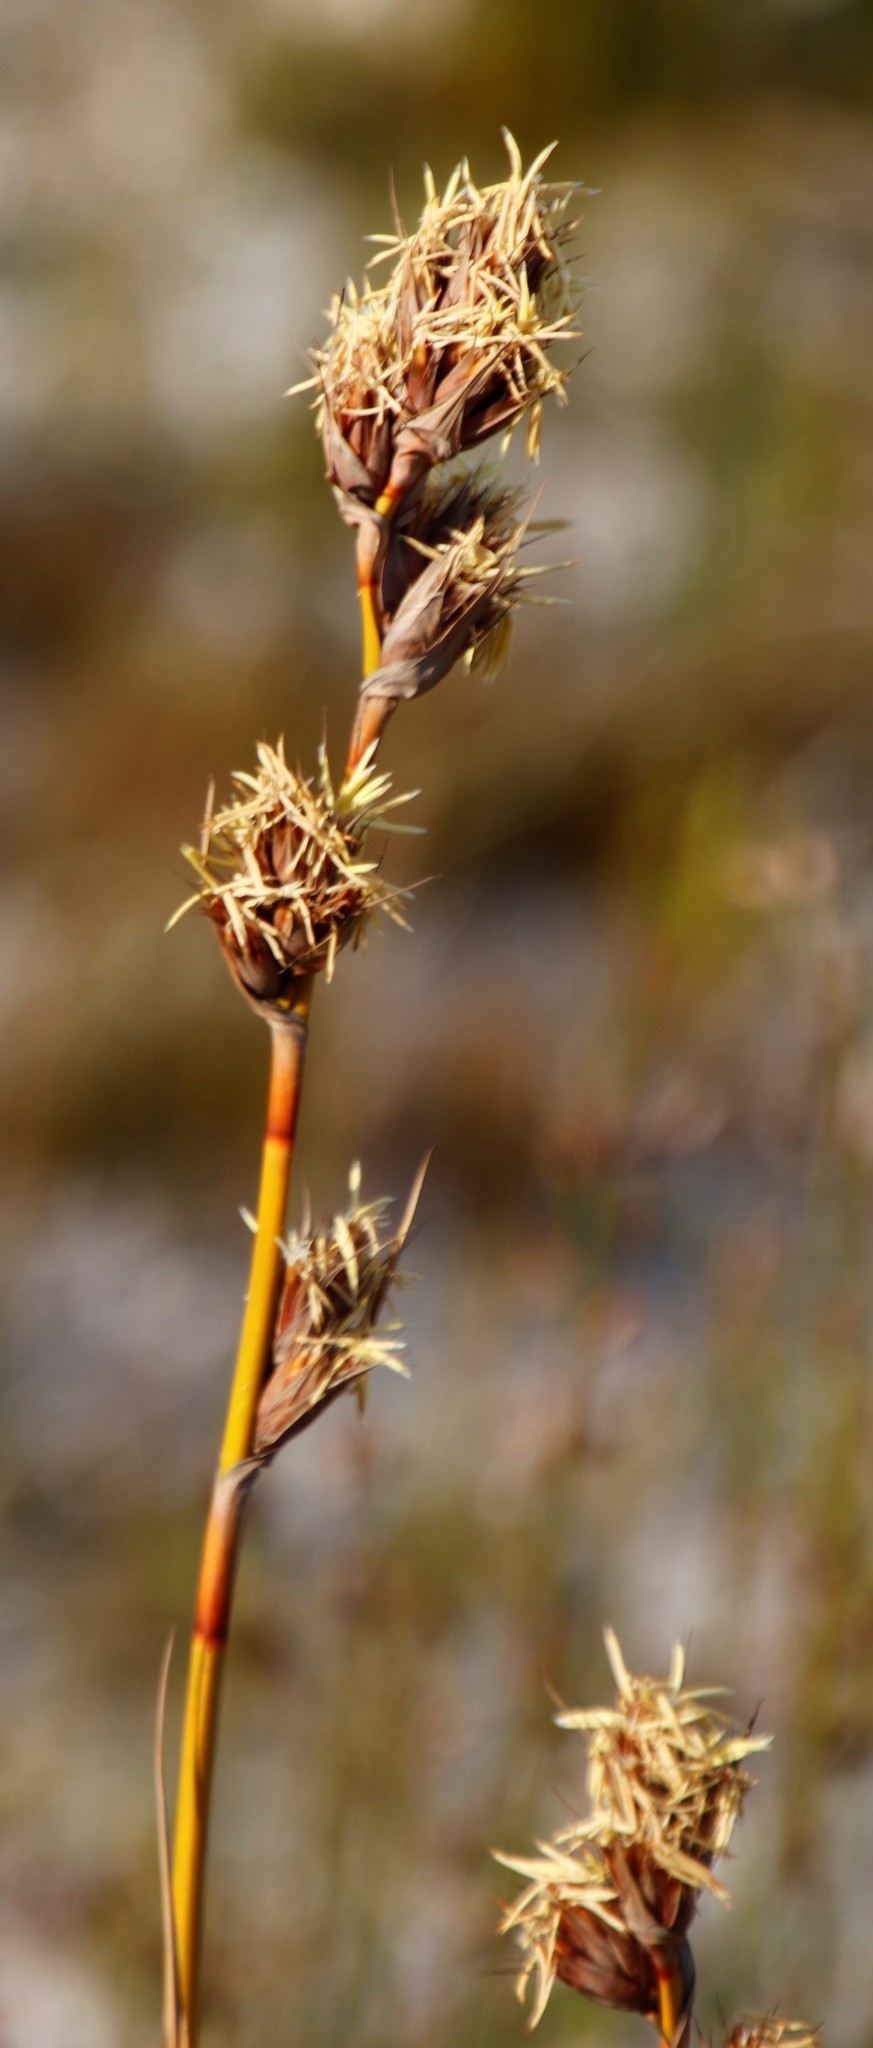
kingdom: Plantae
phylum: Tracheophyta
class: Liliopsida
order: Poales
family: Cyperaceae
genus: Tetraria
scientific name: Tetraria thermalis
